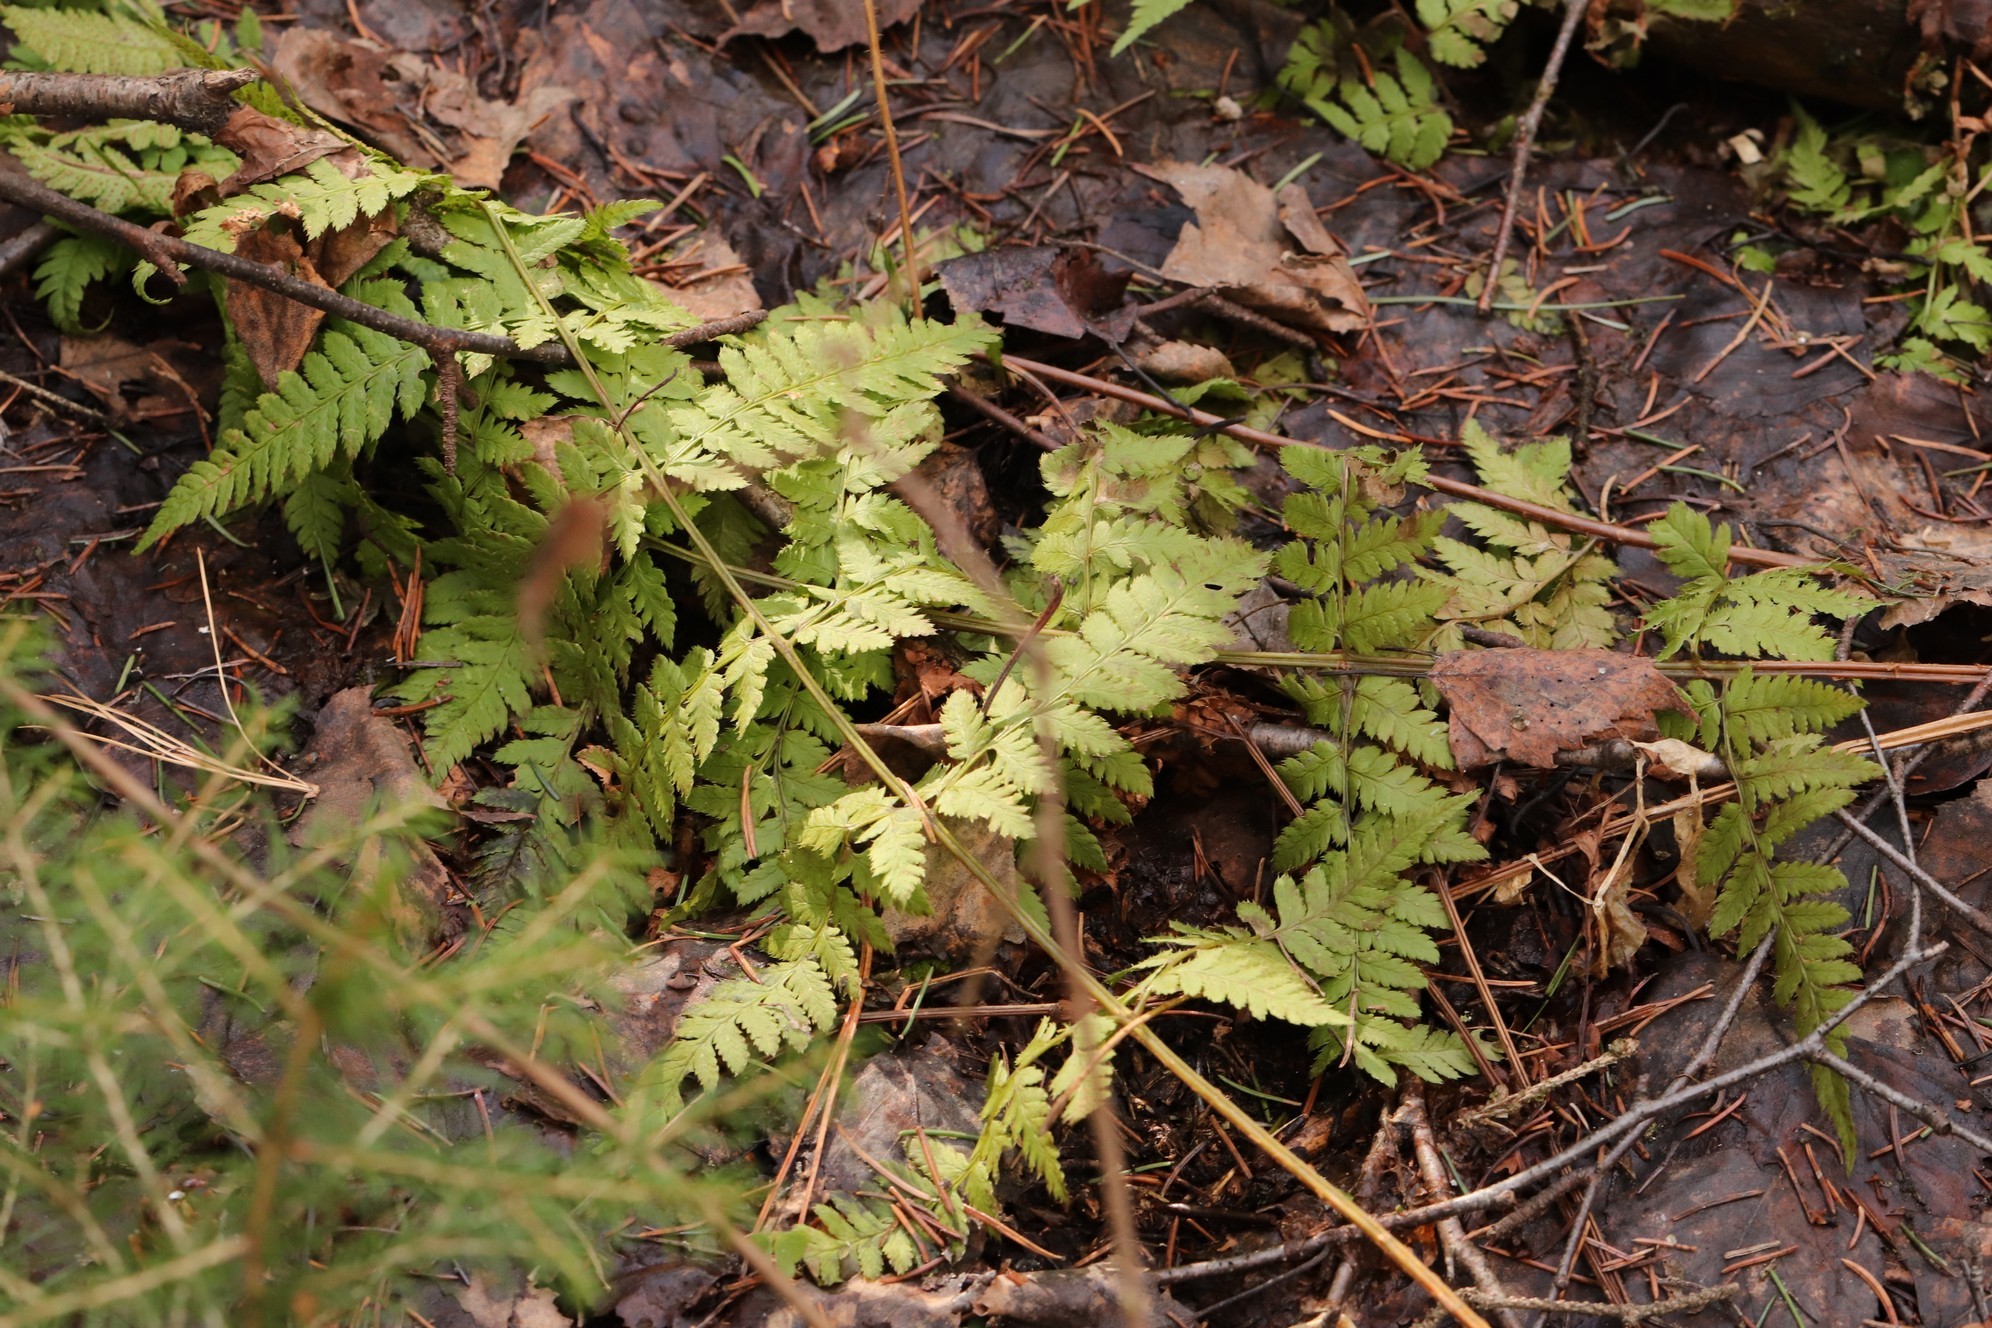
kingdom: Plantae
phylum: Tracheophyta
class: Polypodiopsida
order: Polypodiales
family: Dryopteridaceae
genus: Dryopteris
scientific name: Dryopteris carthusiana
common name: Narrow buckler-fern
